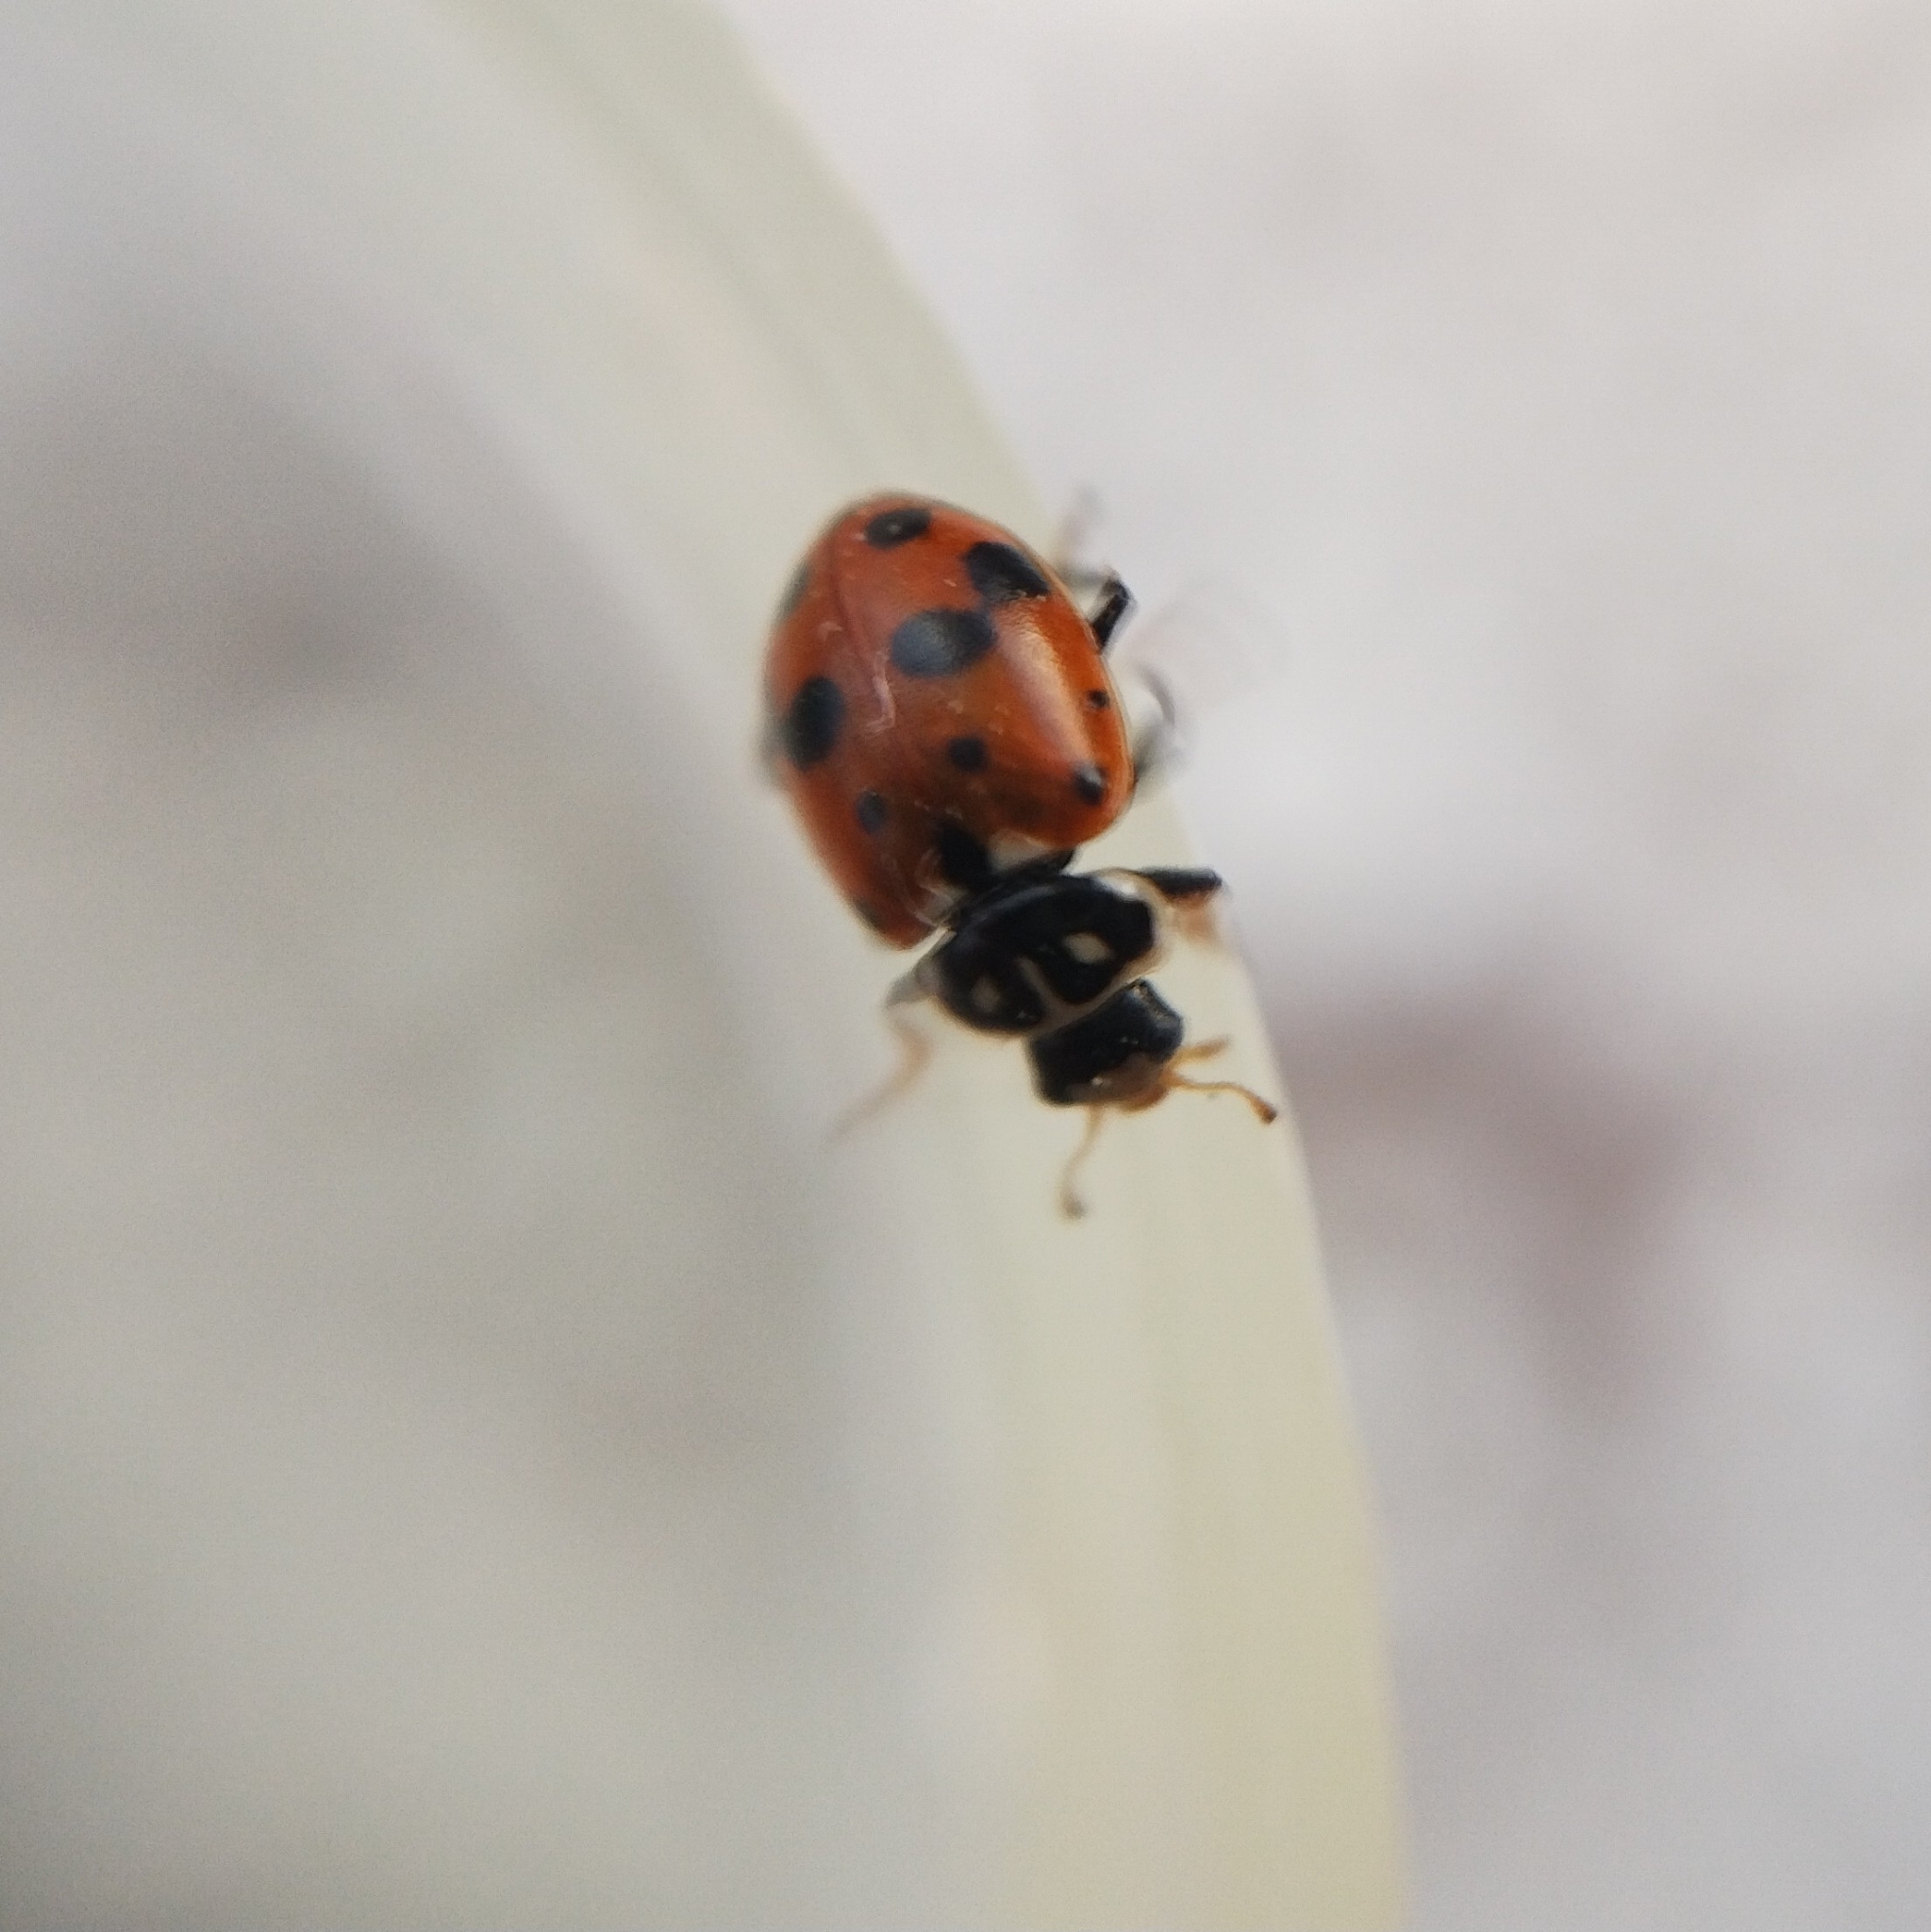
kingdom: Animalia
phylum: Arthropoda
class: Insecta
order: Coleoptera
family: Coccinellidae
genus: Hippodamia
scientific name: Hippodamia variegata
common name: Ladybird beetle
